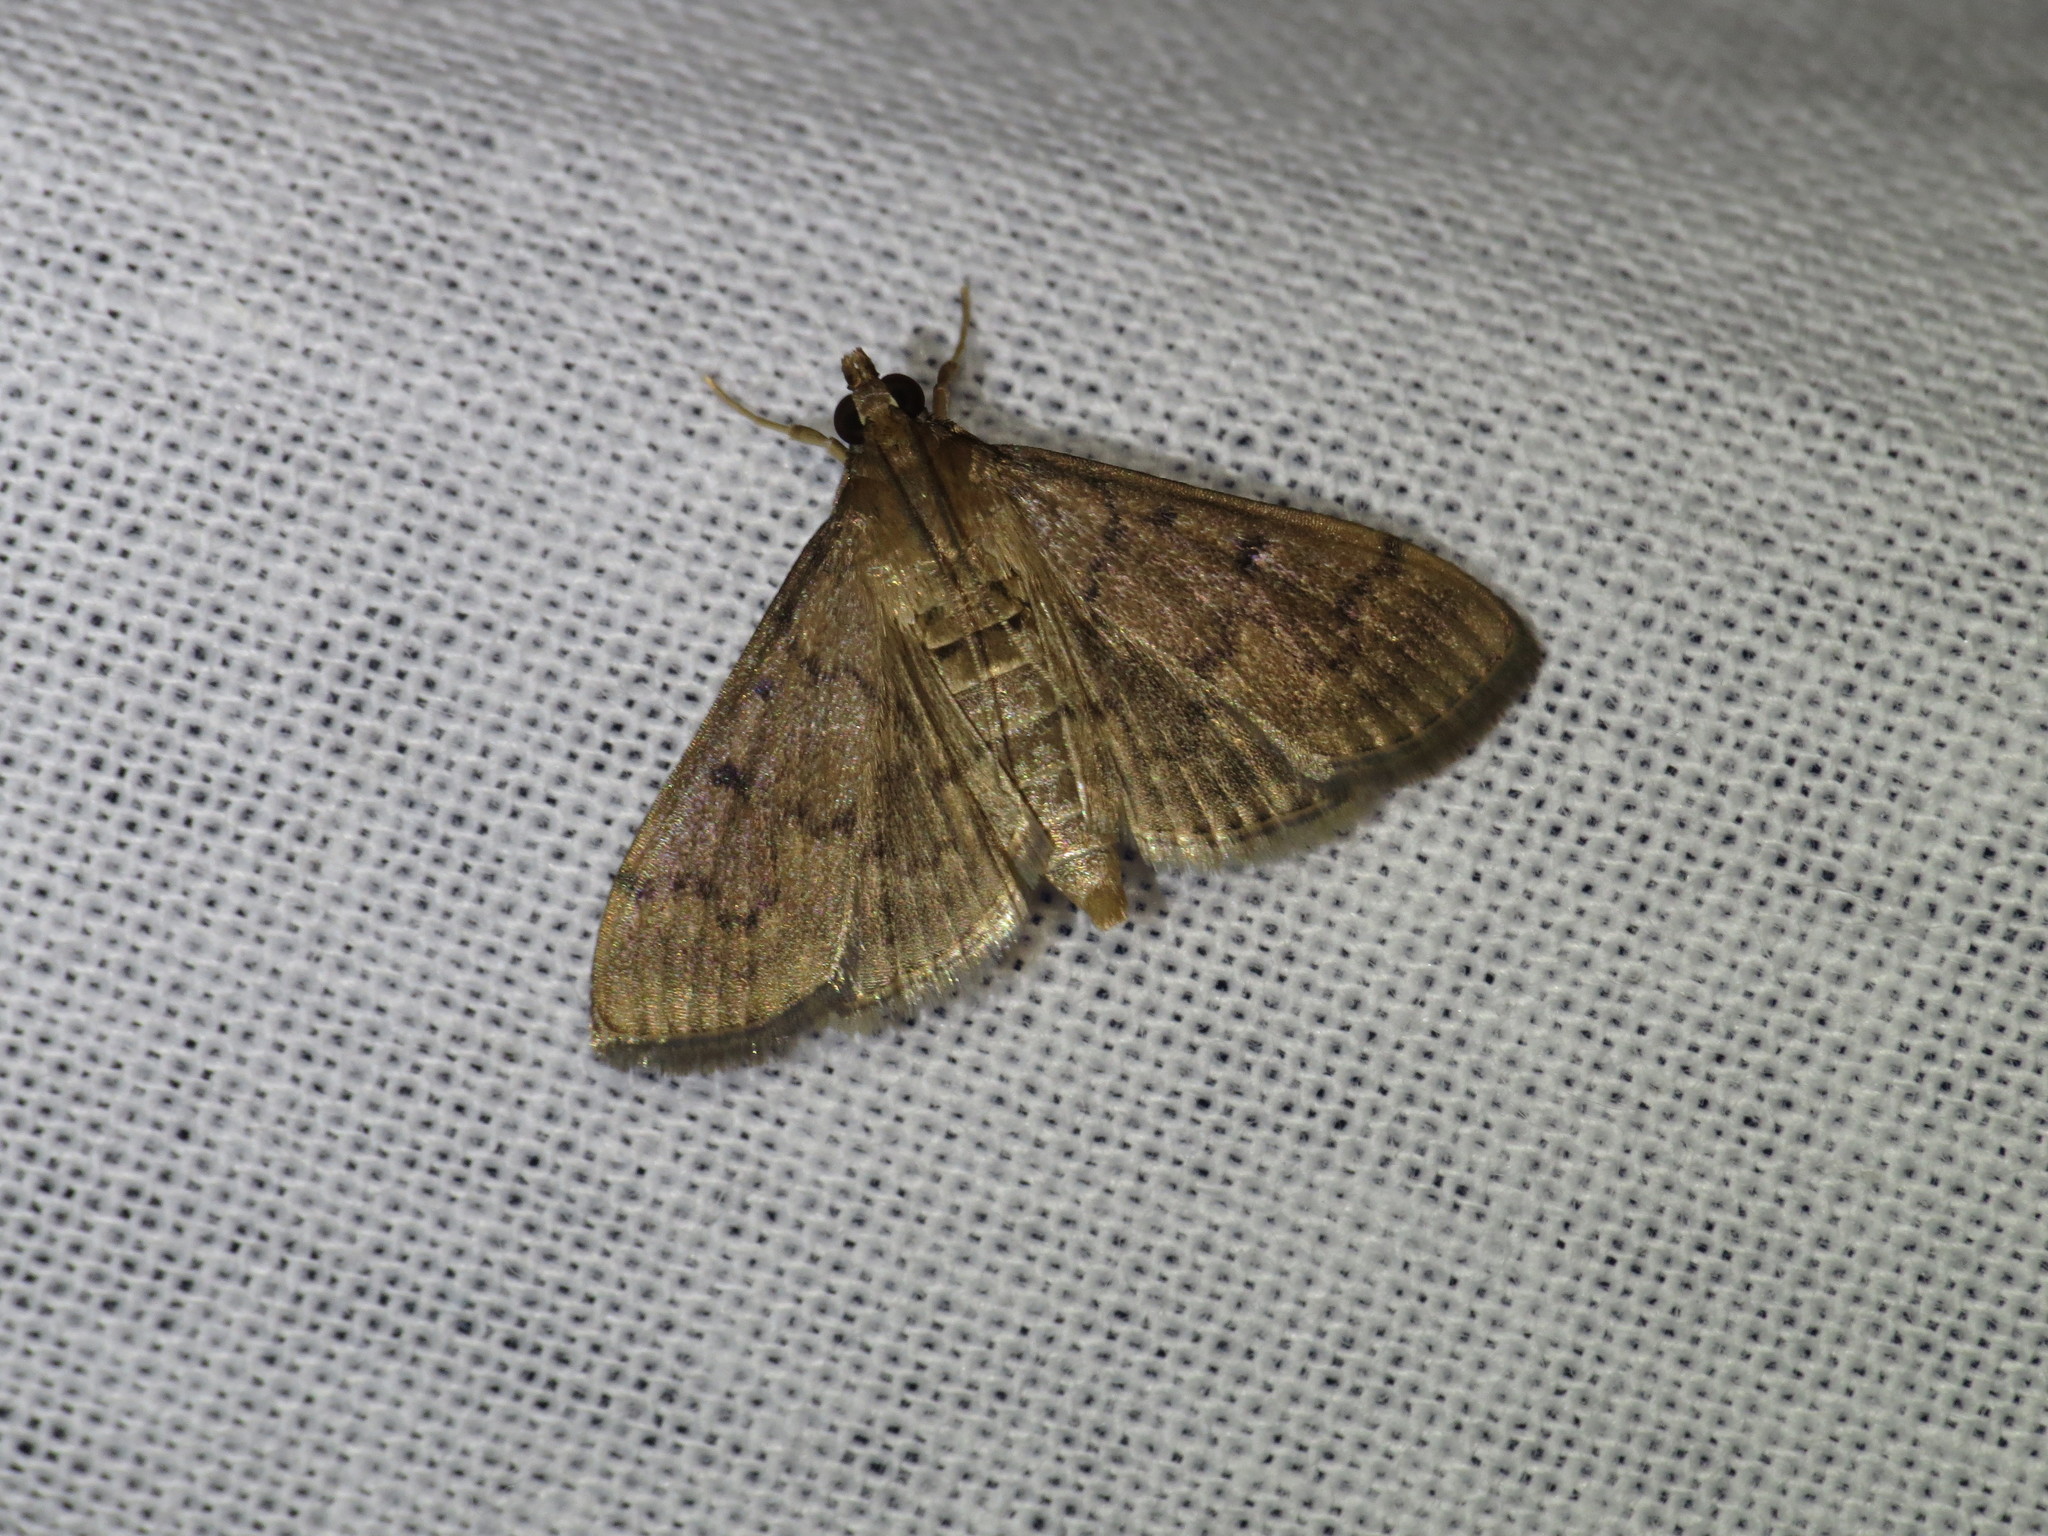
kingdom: Animalia
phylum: Arthropoda
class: Insecta
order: Lepidoptera
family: Crambidae
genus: Herpetogramma
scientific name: Herpetogramma phaeopteralis
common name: Dusky herpetogramma moth
